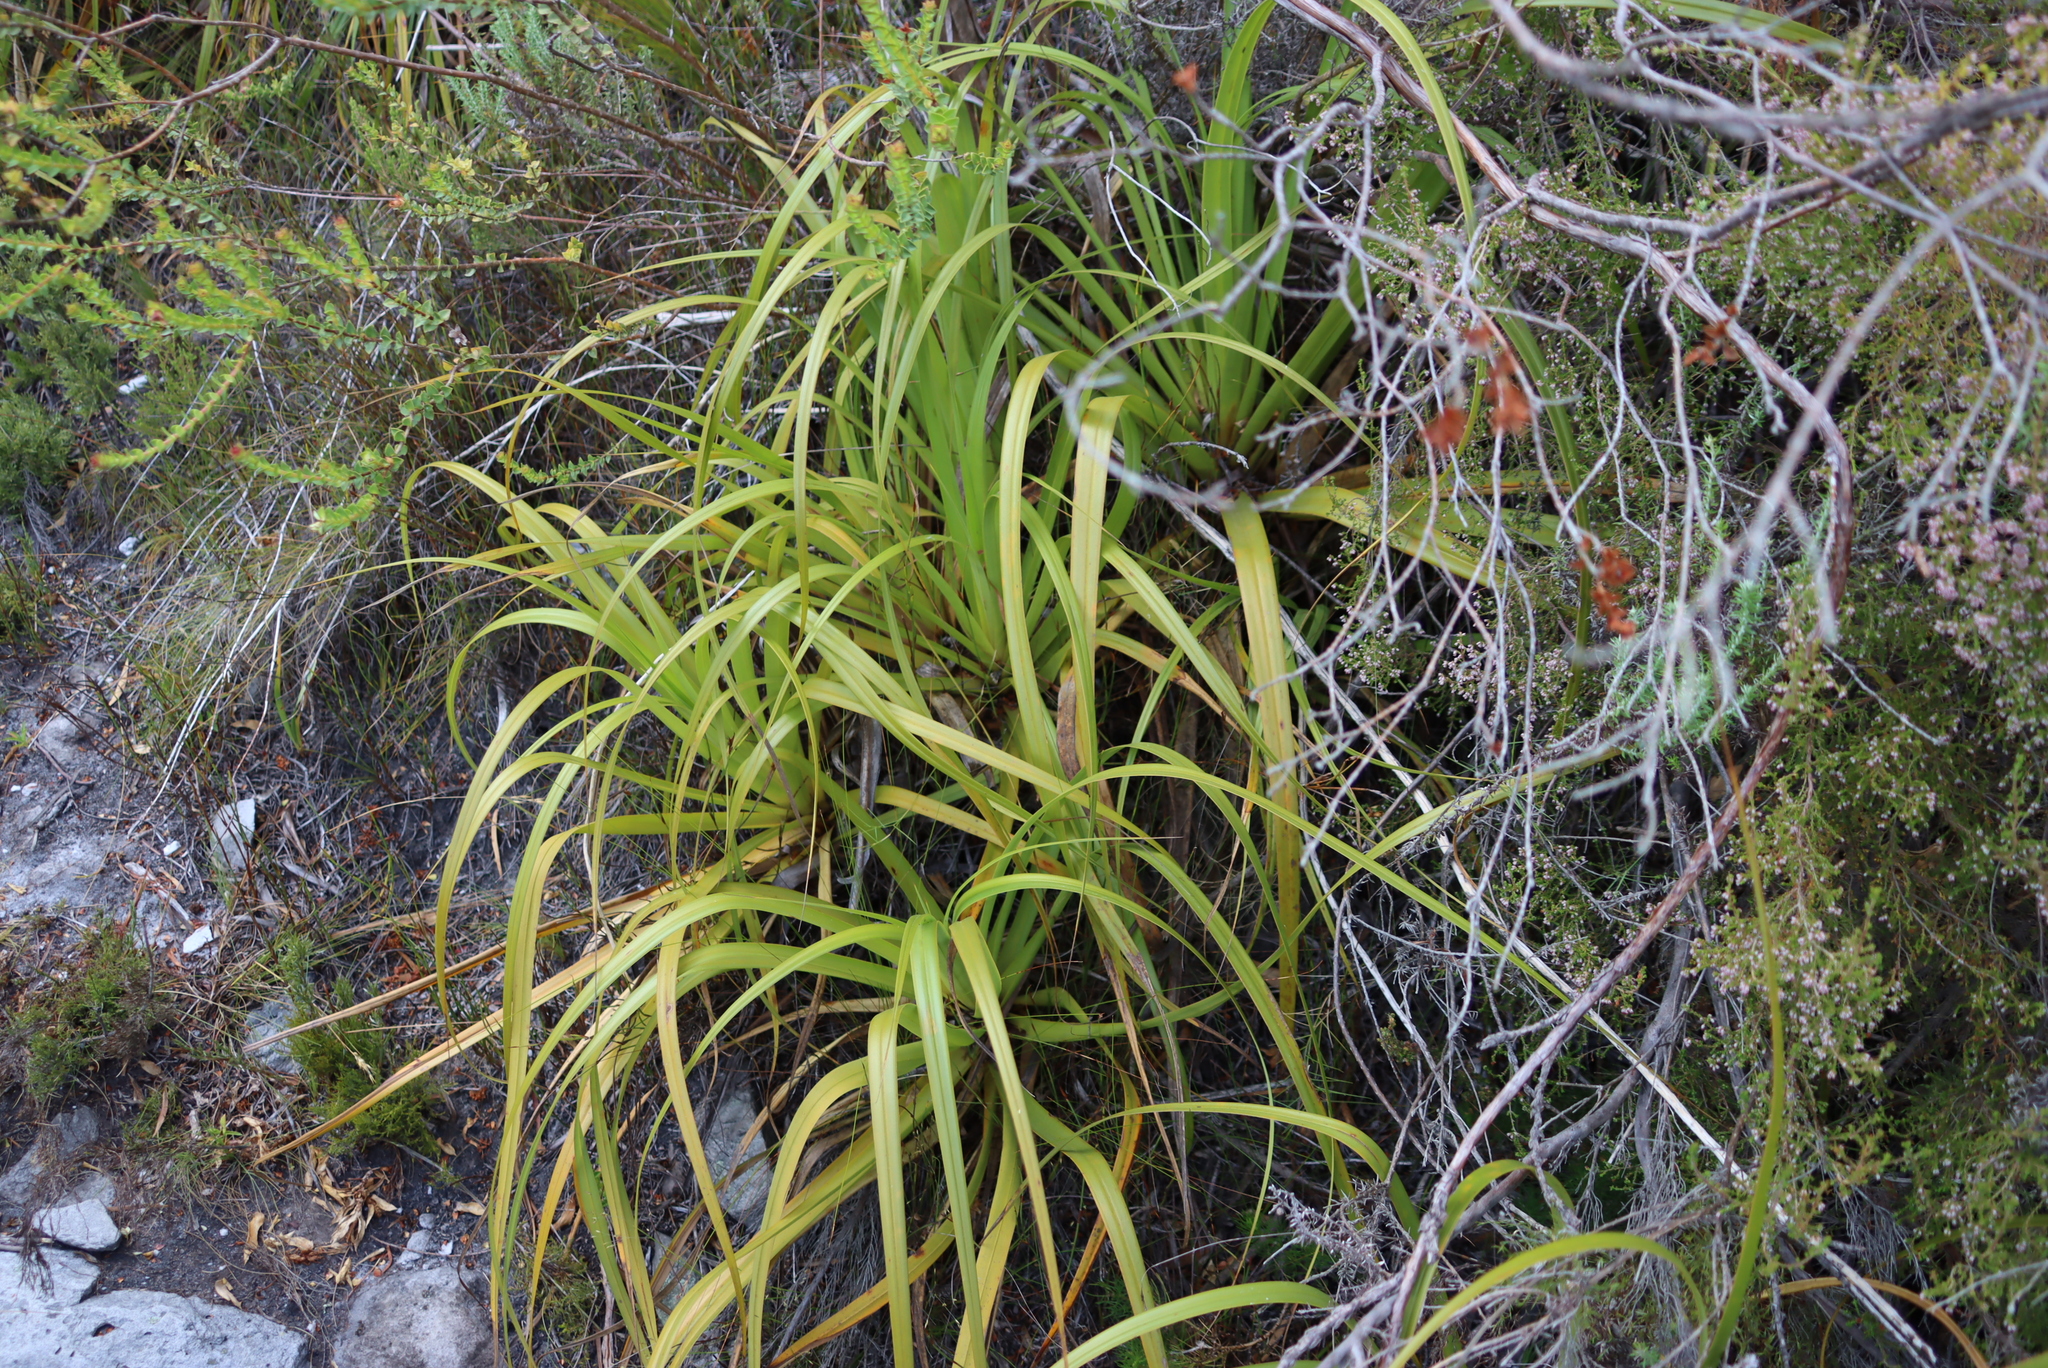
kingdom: Plantae
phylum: Tracheophyta
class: Liliopsida
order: Poales
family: Cyperaceae
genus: Tetraria
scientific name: Tetraria thermalis
